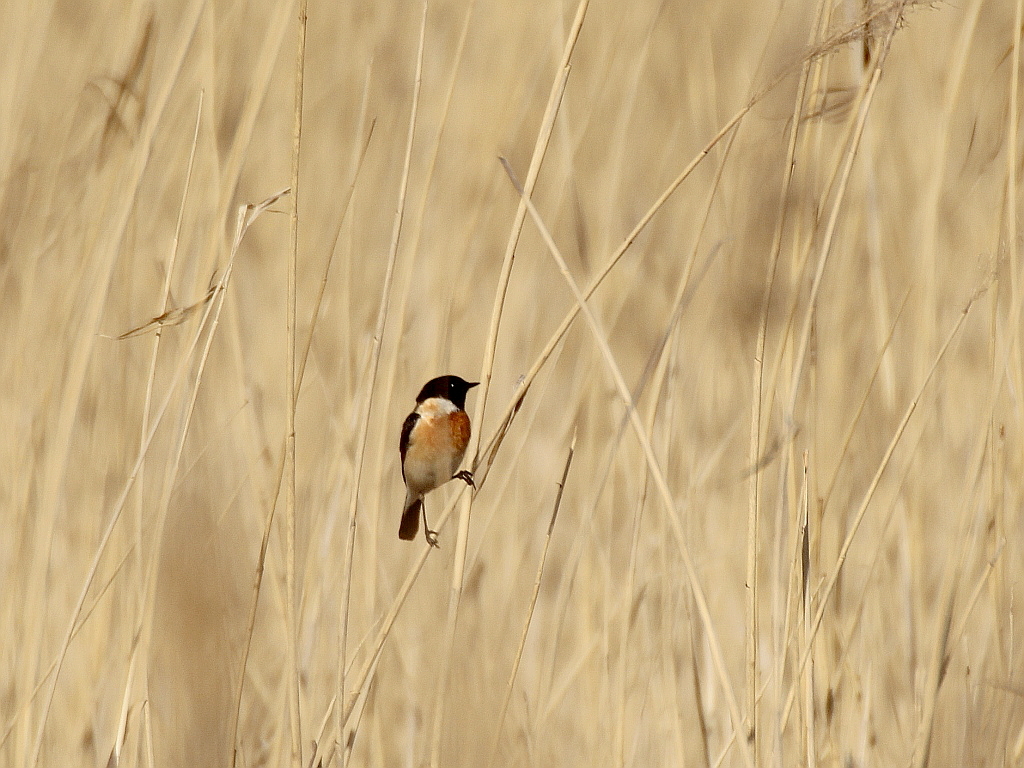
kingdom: Animalia
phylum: Chordata
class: Aves
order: Passeriformes
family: Muscicapidae
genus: Saxicola
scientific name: Saxicola maurus
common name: Siberian stonechat
